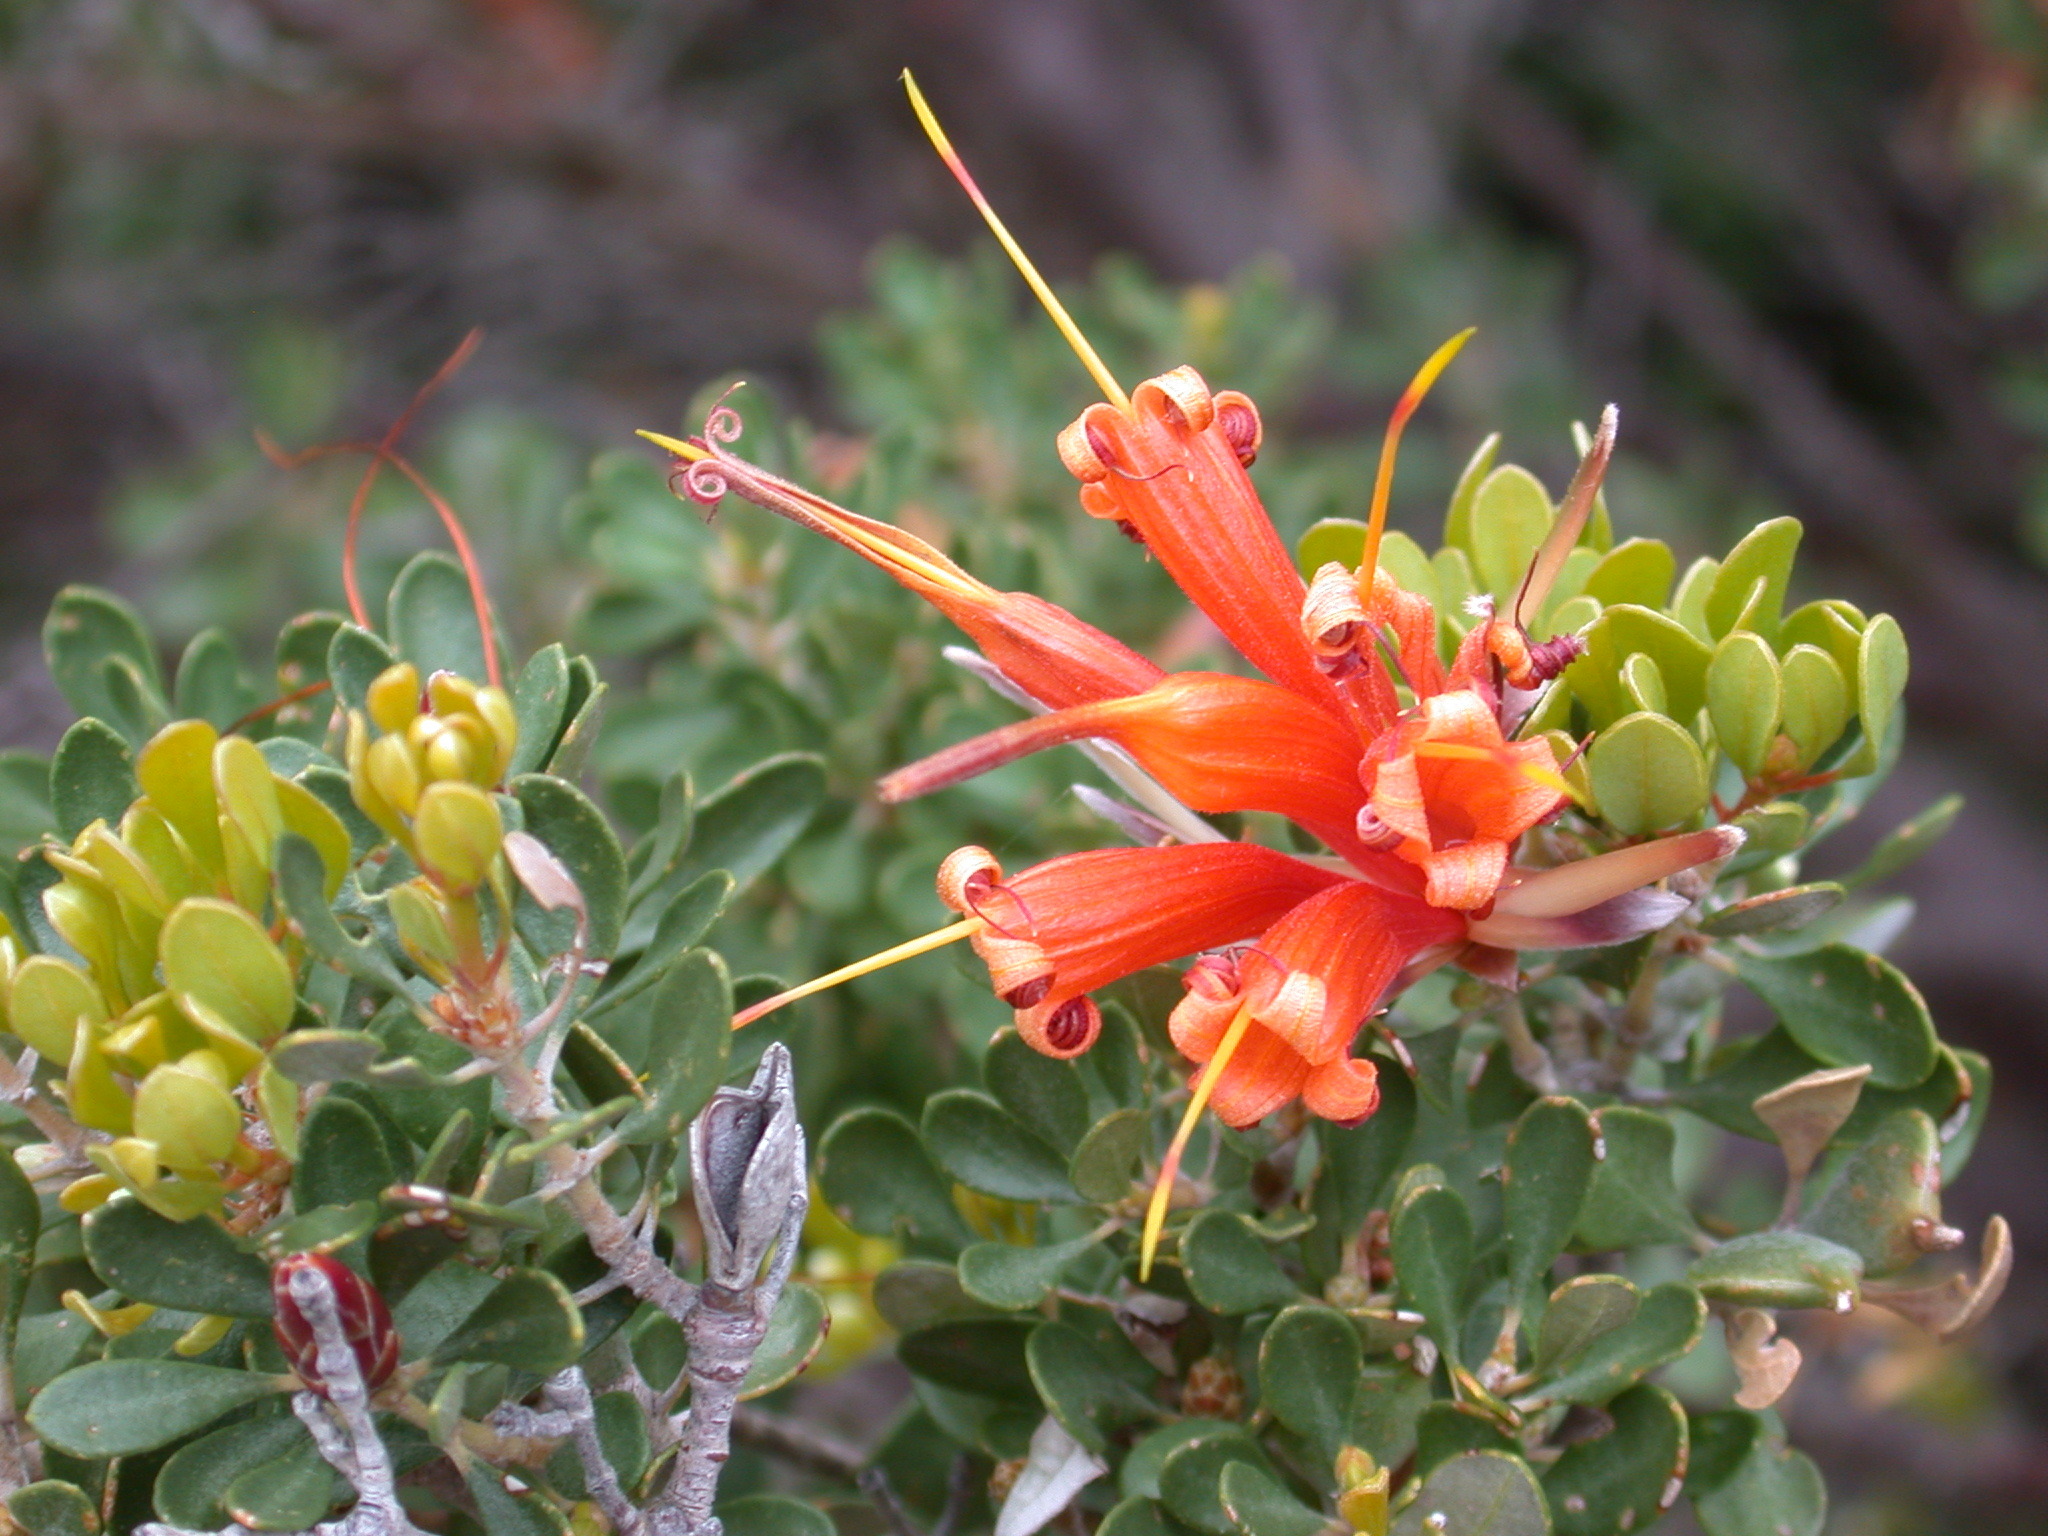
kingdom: Plantae
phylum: Tracheophyta
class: Magnoliopsida
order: Proteales
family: Proteaceae
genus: Lambertia
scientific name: Lambertia inermis
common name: Chittick
